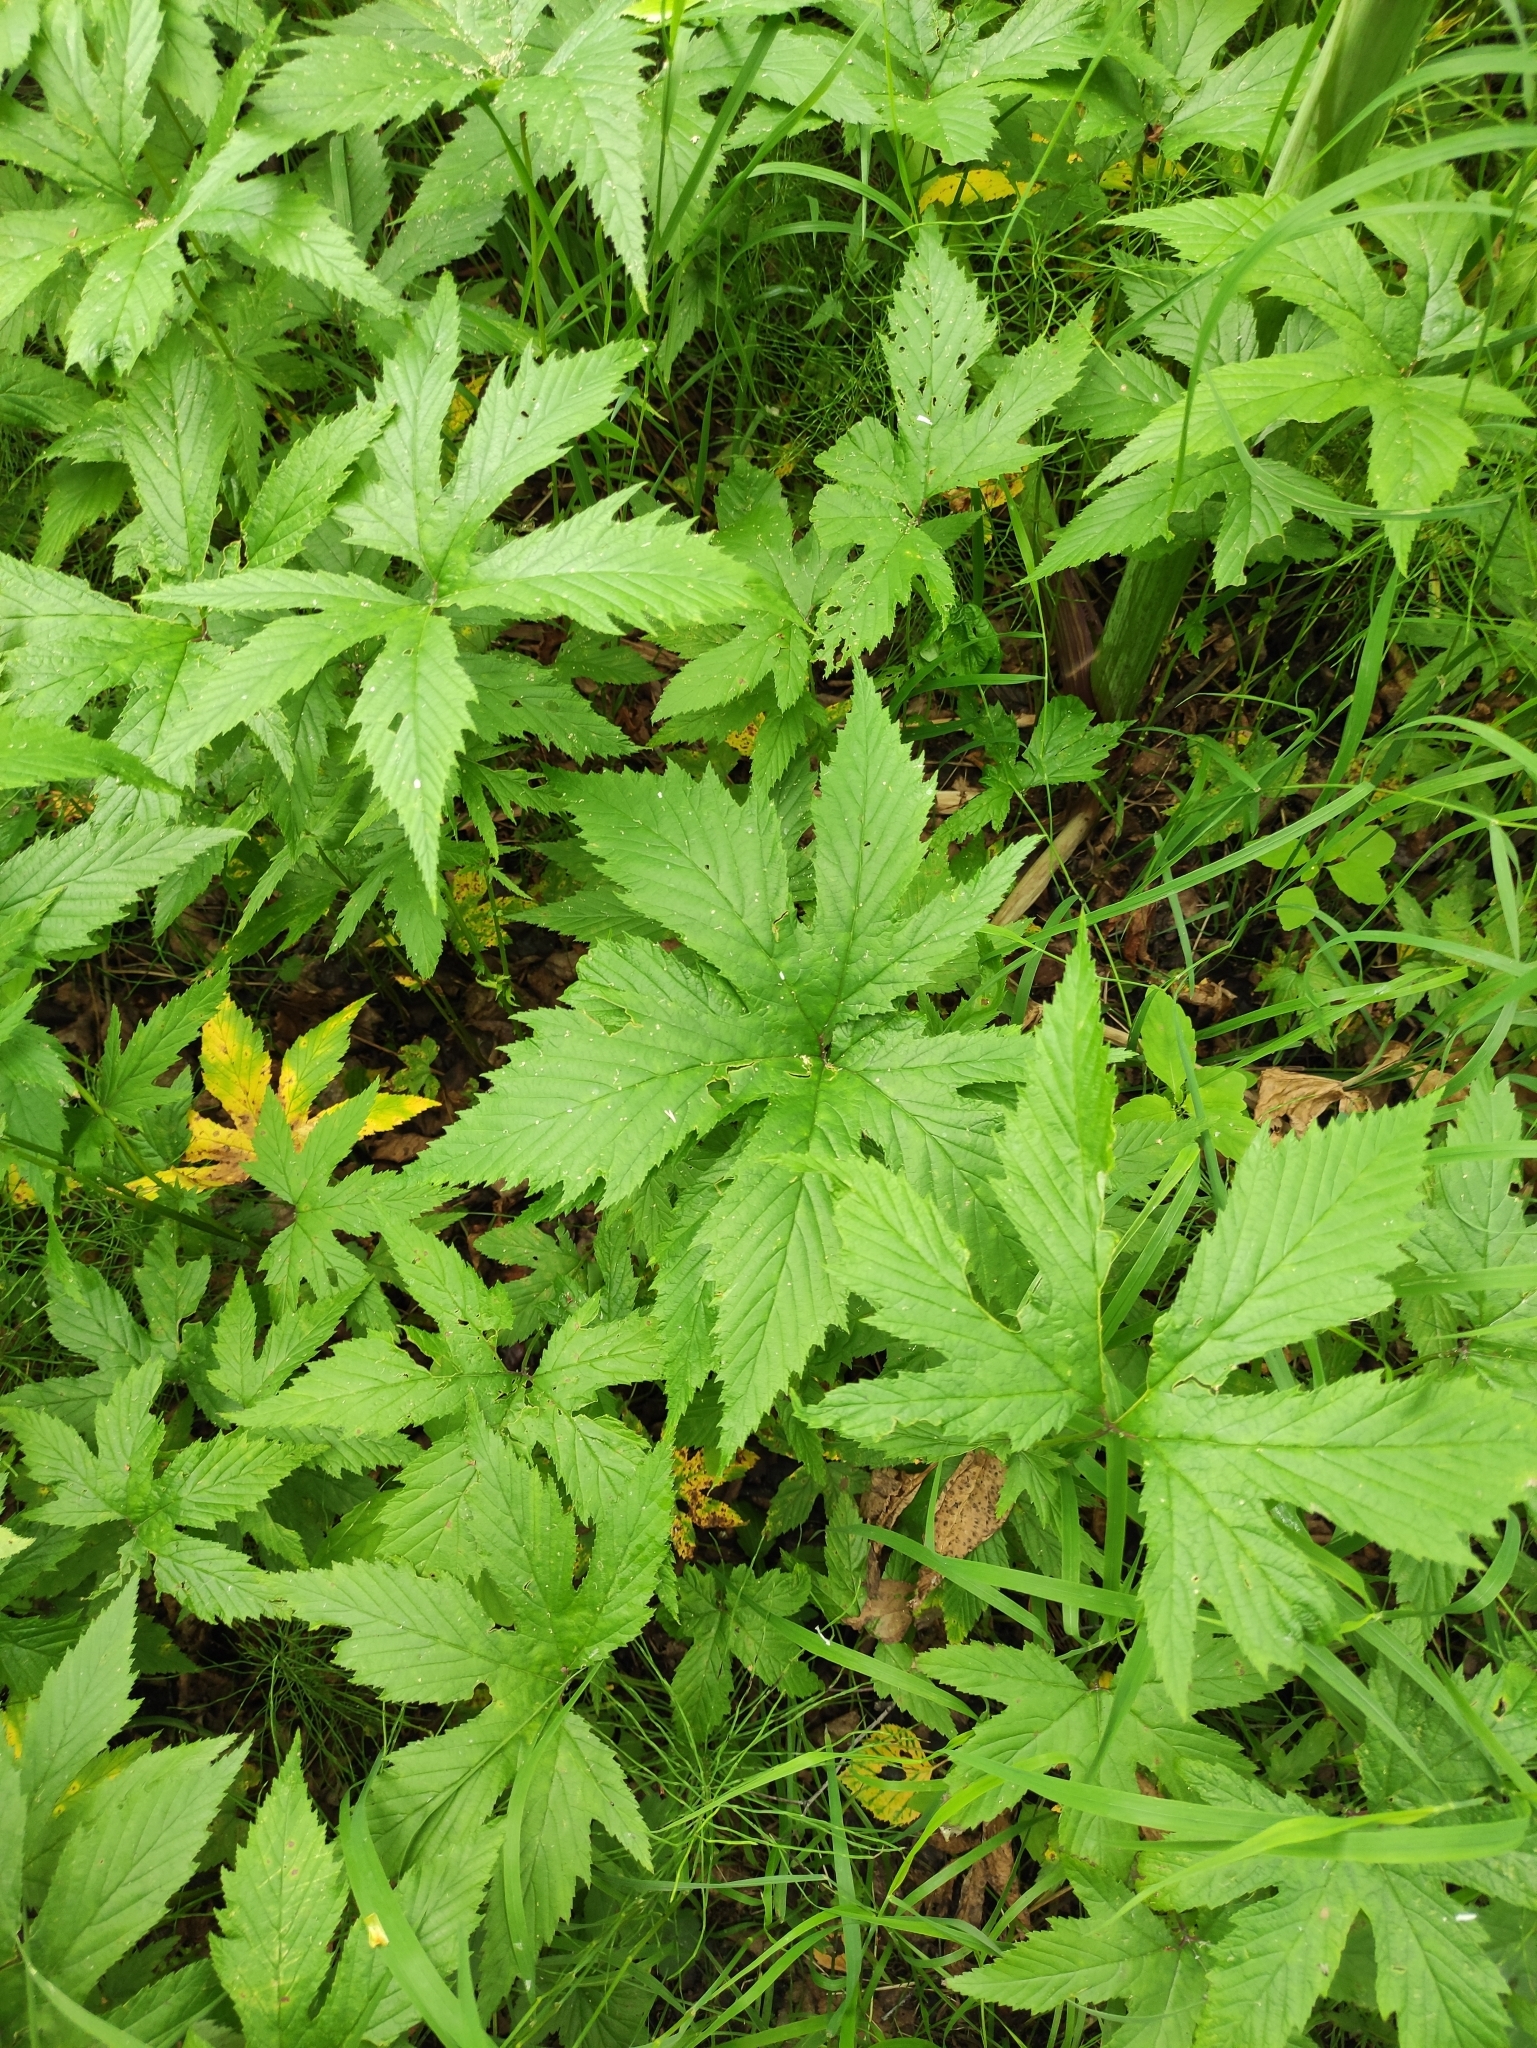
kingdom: Plantae
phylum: Tracheophyta
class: Magnoliopsida
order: Rosales
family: Rosaceae
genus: Filipendula
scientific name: Filipendula digitata
